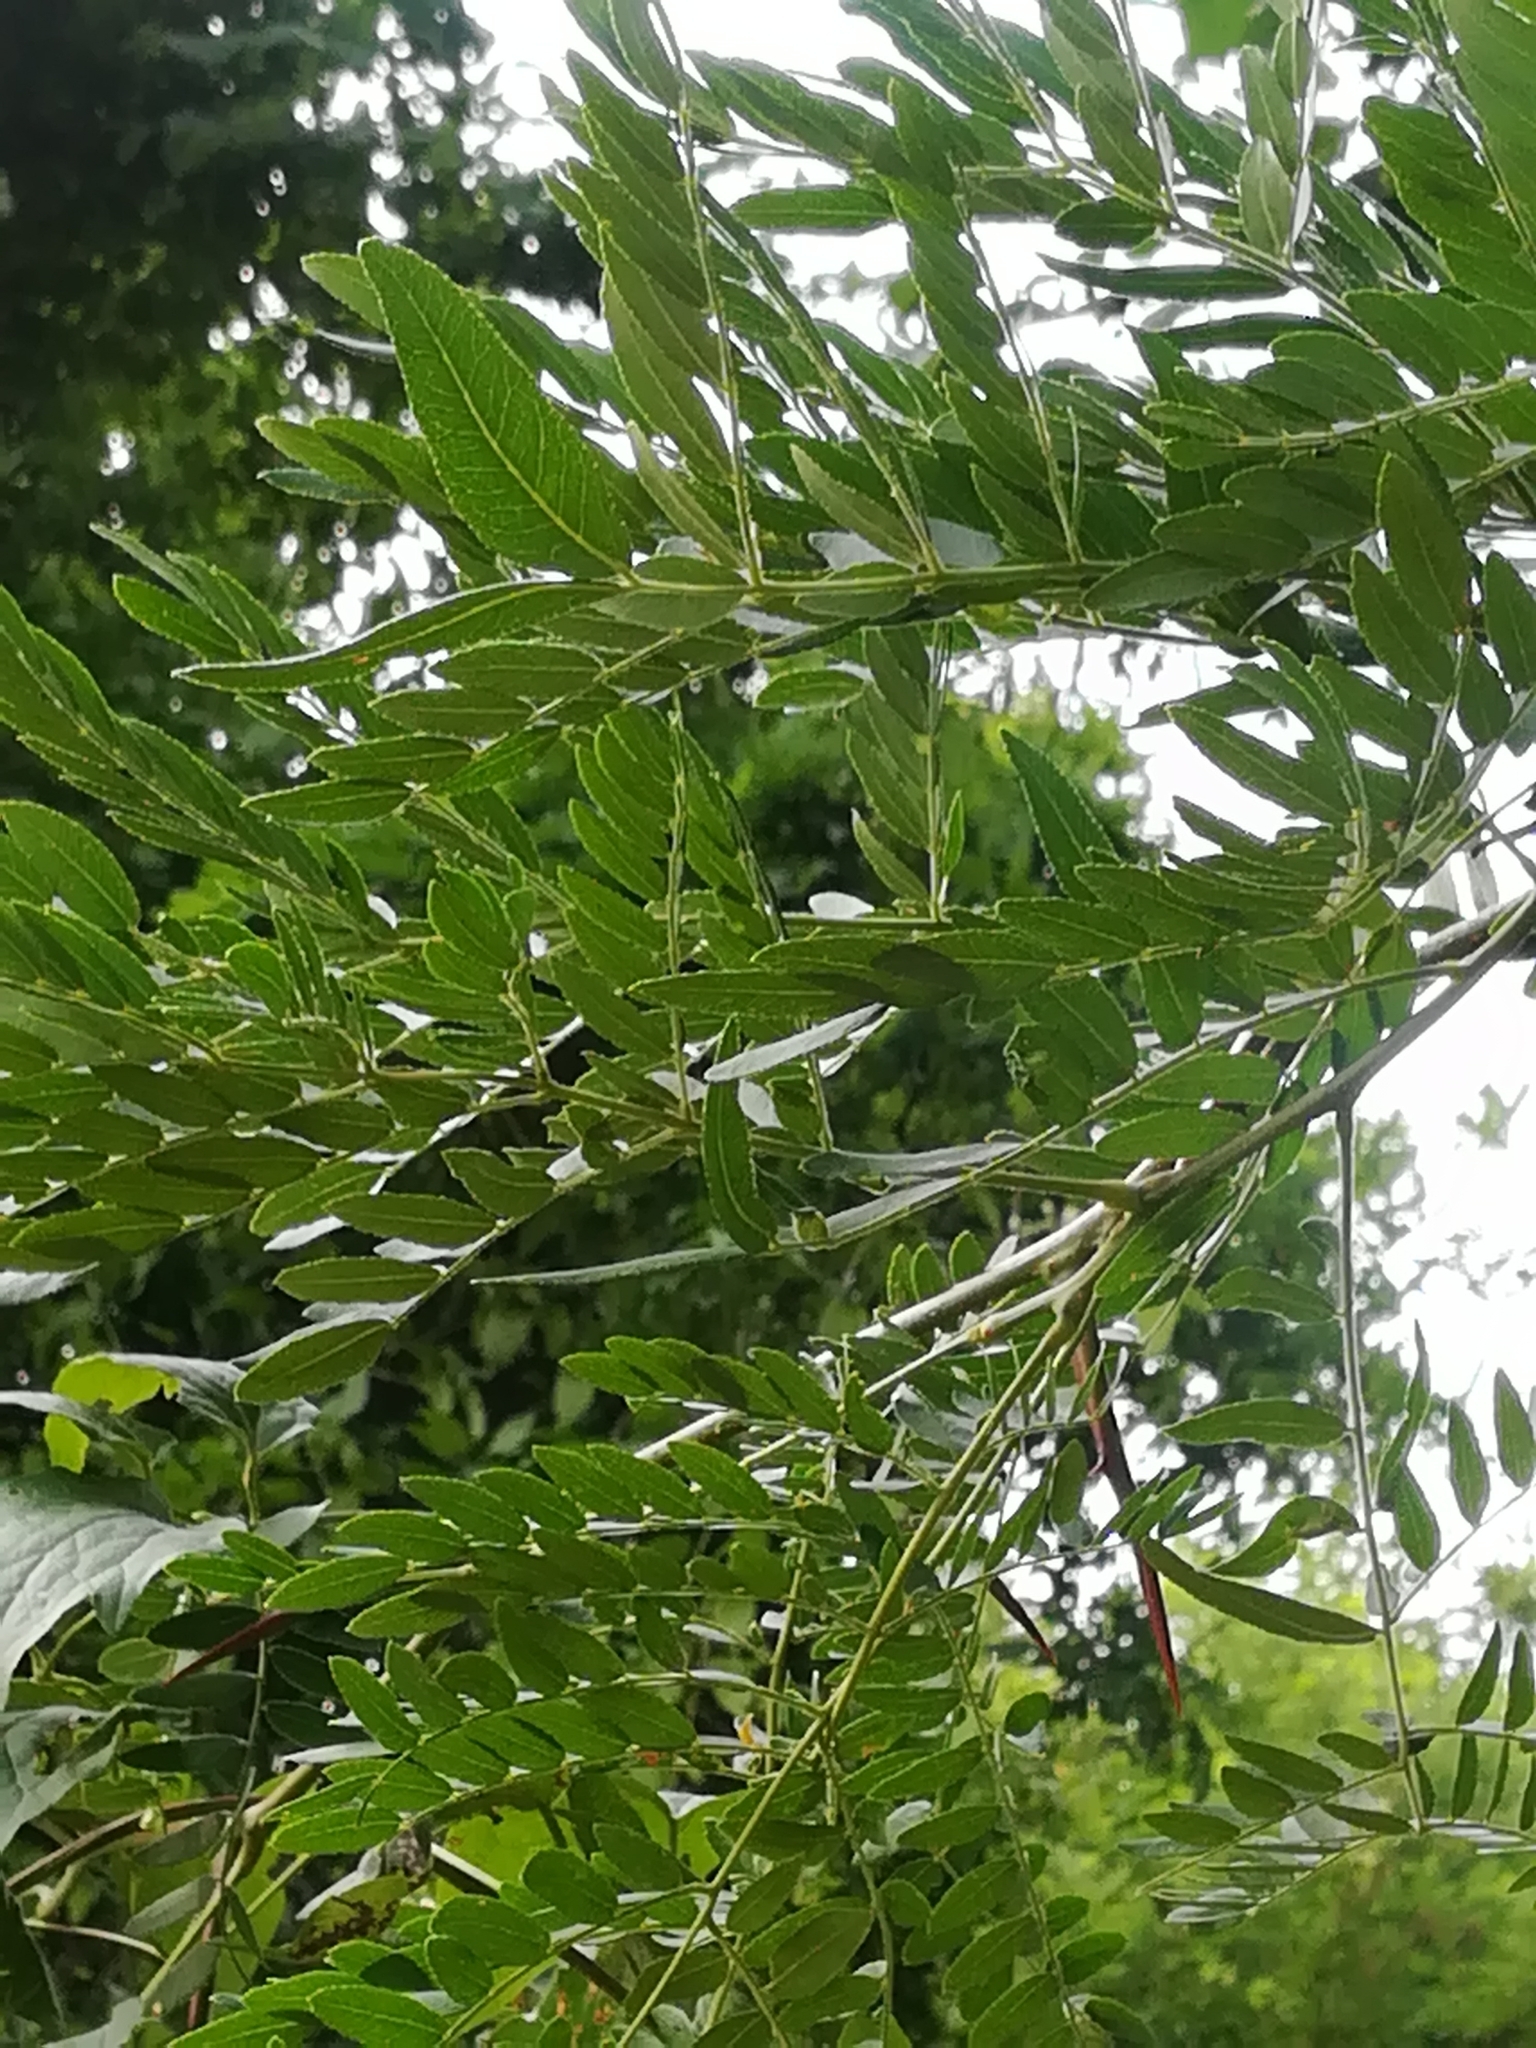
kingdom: Plantae
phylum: Tracheophyta
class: Magnoliopsida
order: Fabales
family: Fabaceae
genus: Gleditsia
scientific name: Gleditsia triacanthos
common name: Common honeylocust
